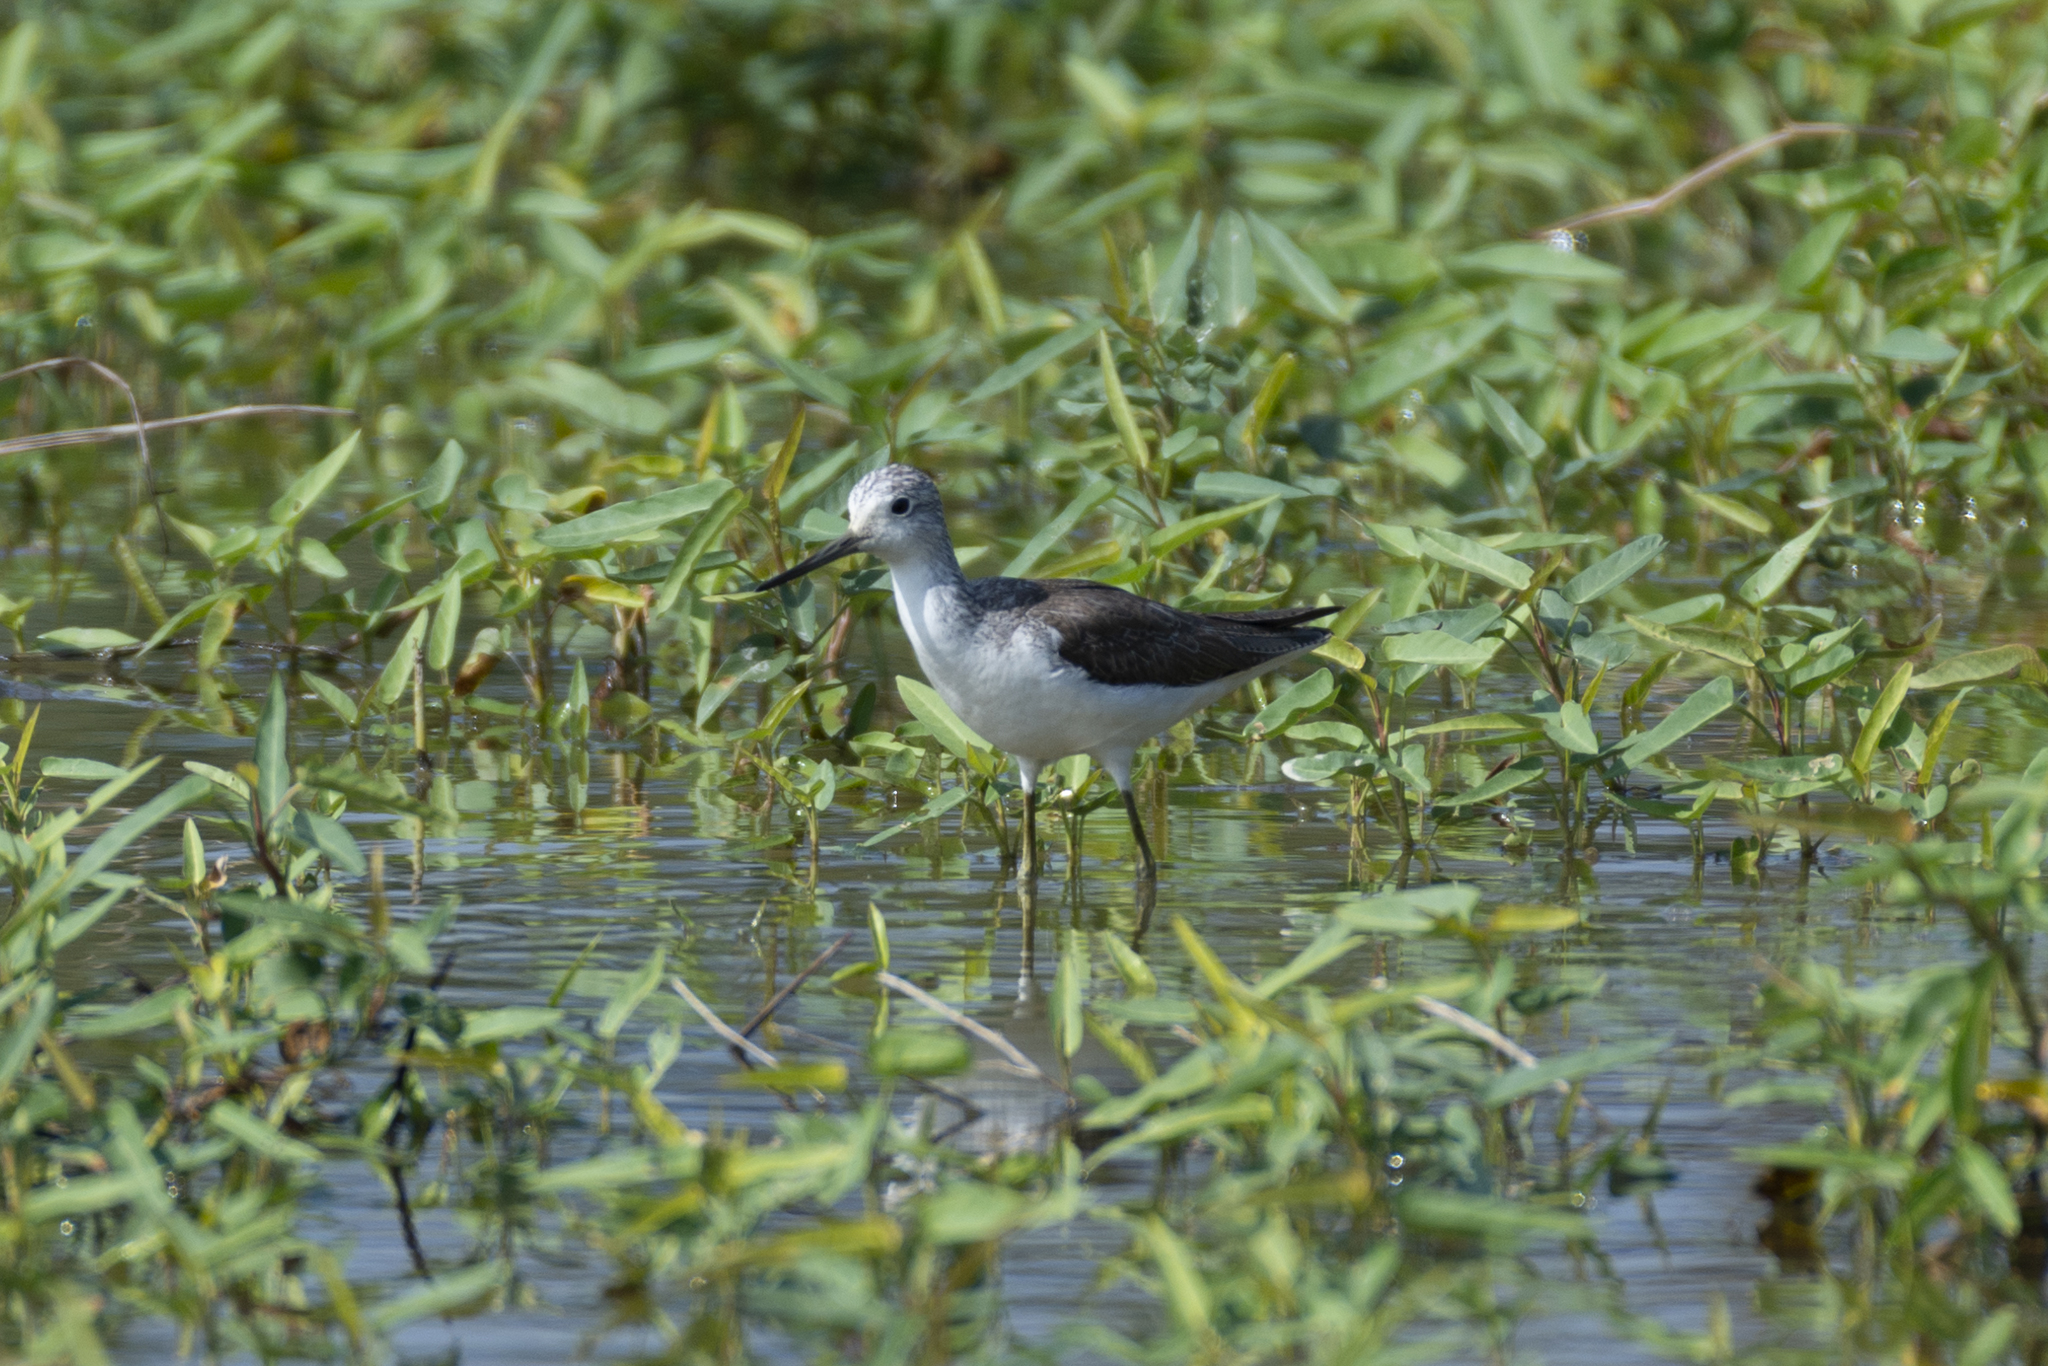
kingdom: Animalia
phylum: Chordata
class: Aves
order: Charadriiformes
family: Scolopacidae
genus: Tringa
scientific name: Tringa nebularia
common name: Common greenshank
